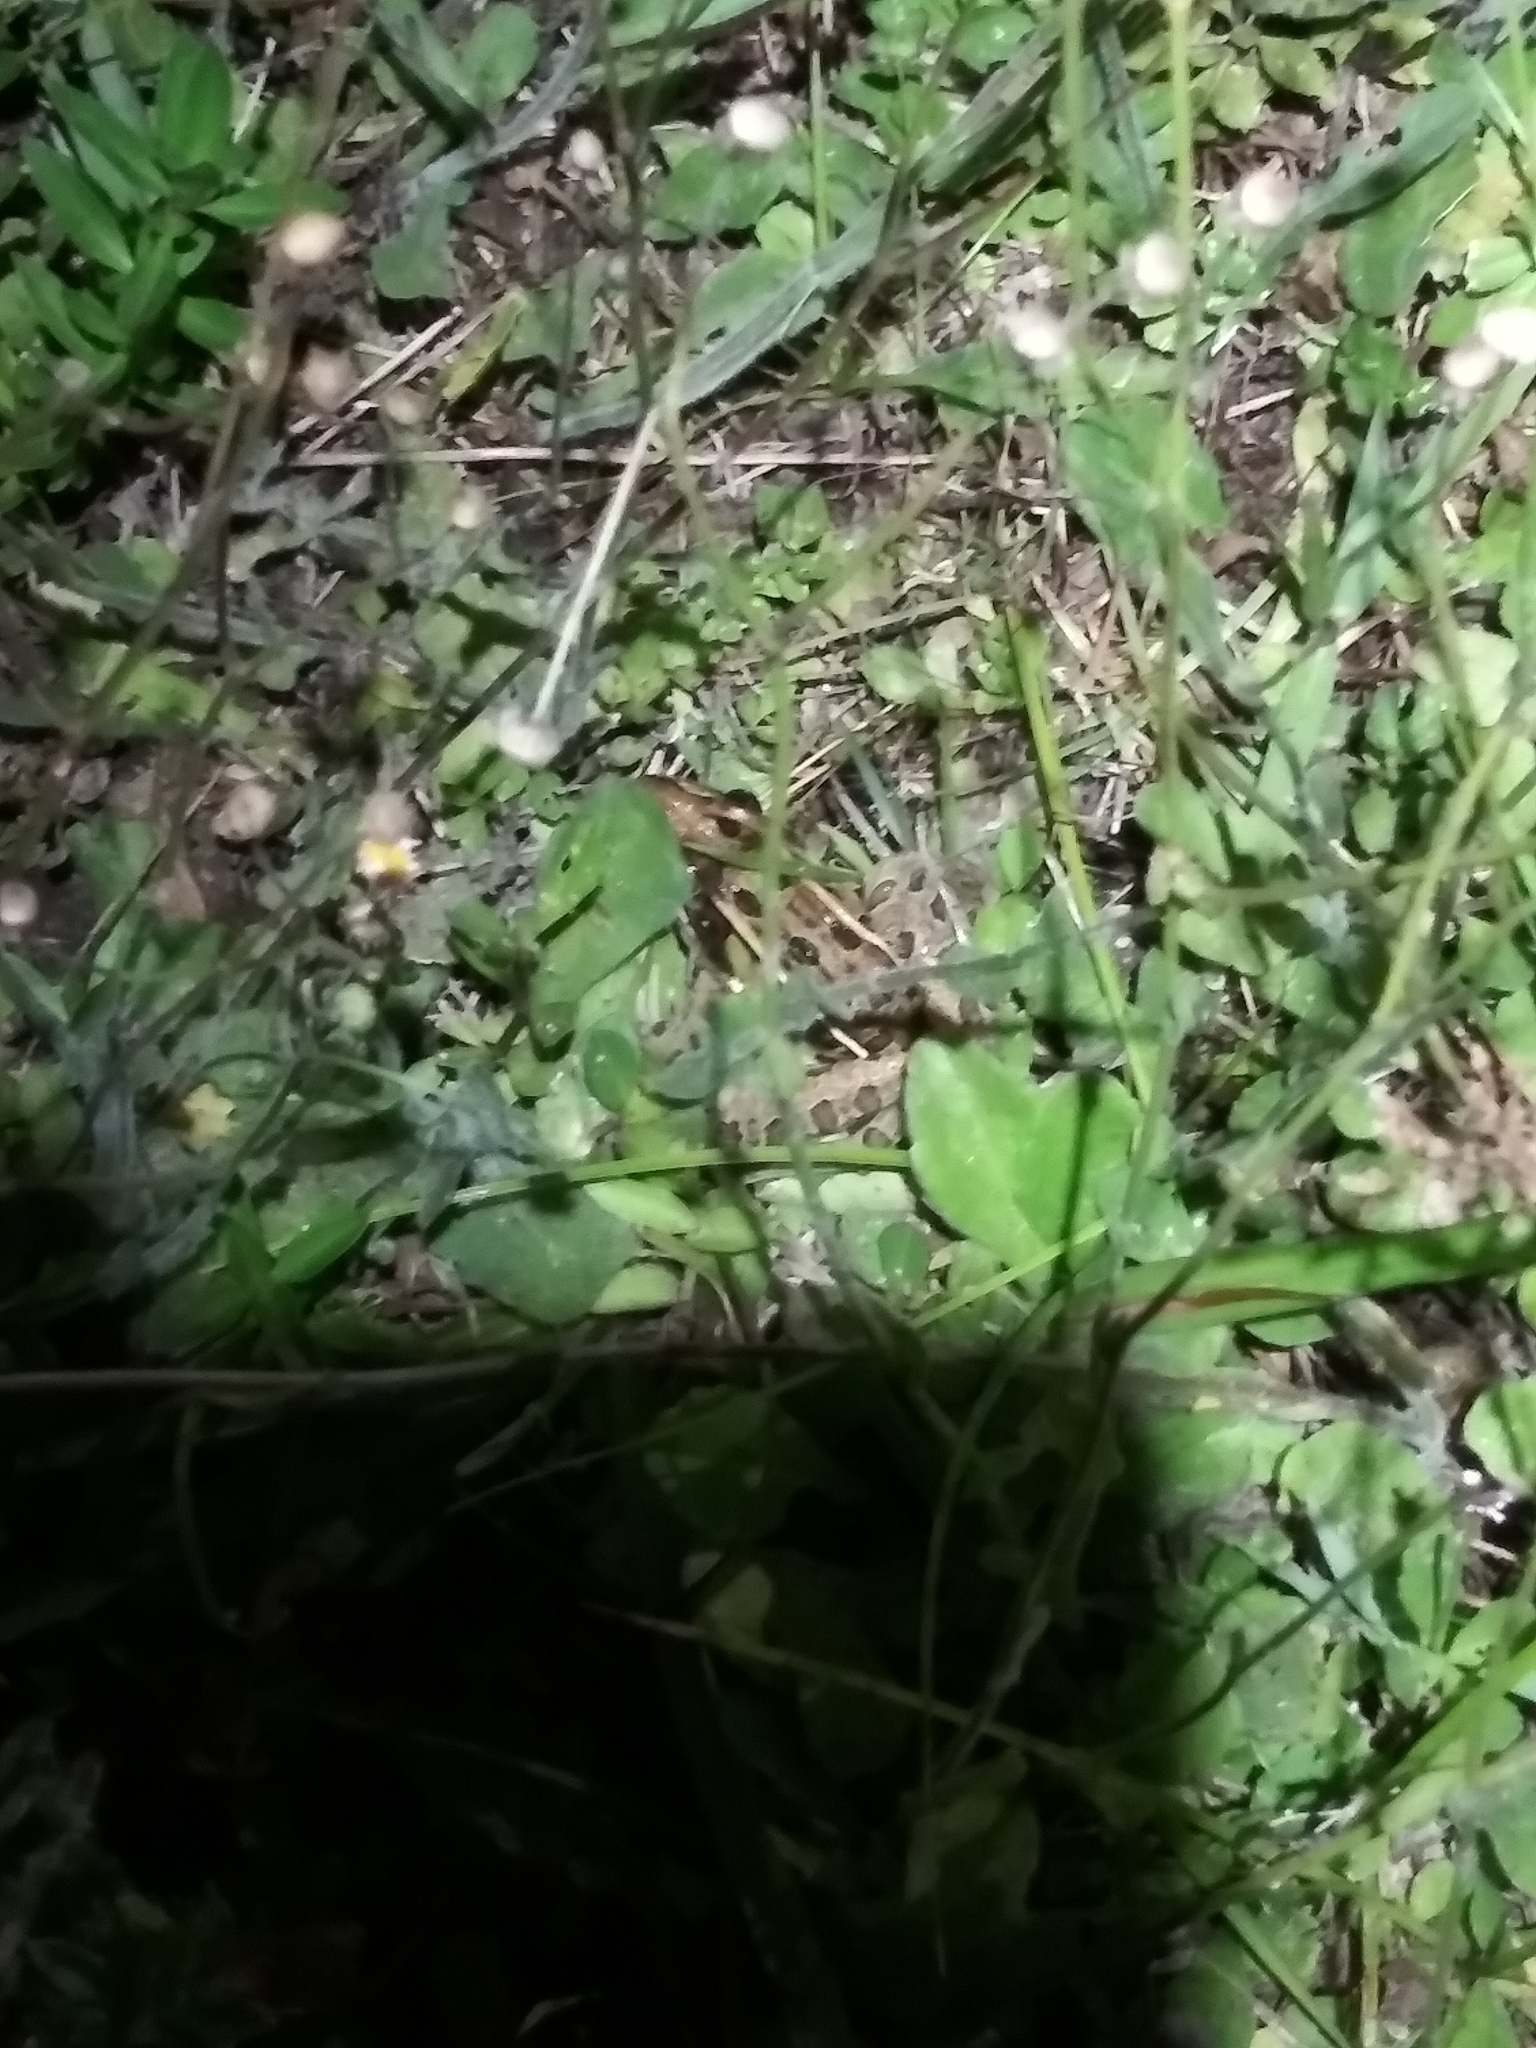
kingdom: Animalia
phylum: Chordata
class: Amphibia
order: Anura
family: Ranidae
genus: Lithobates
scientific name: Lithobates sphenocephalus
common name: Southern leopard frog
